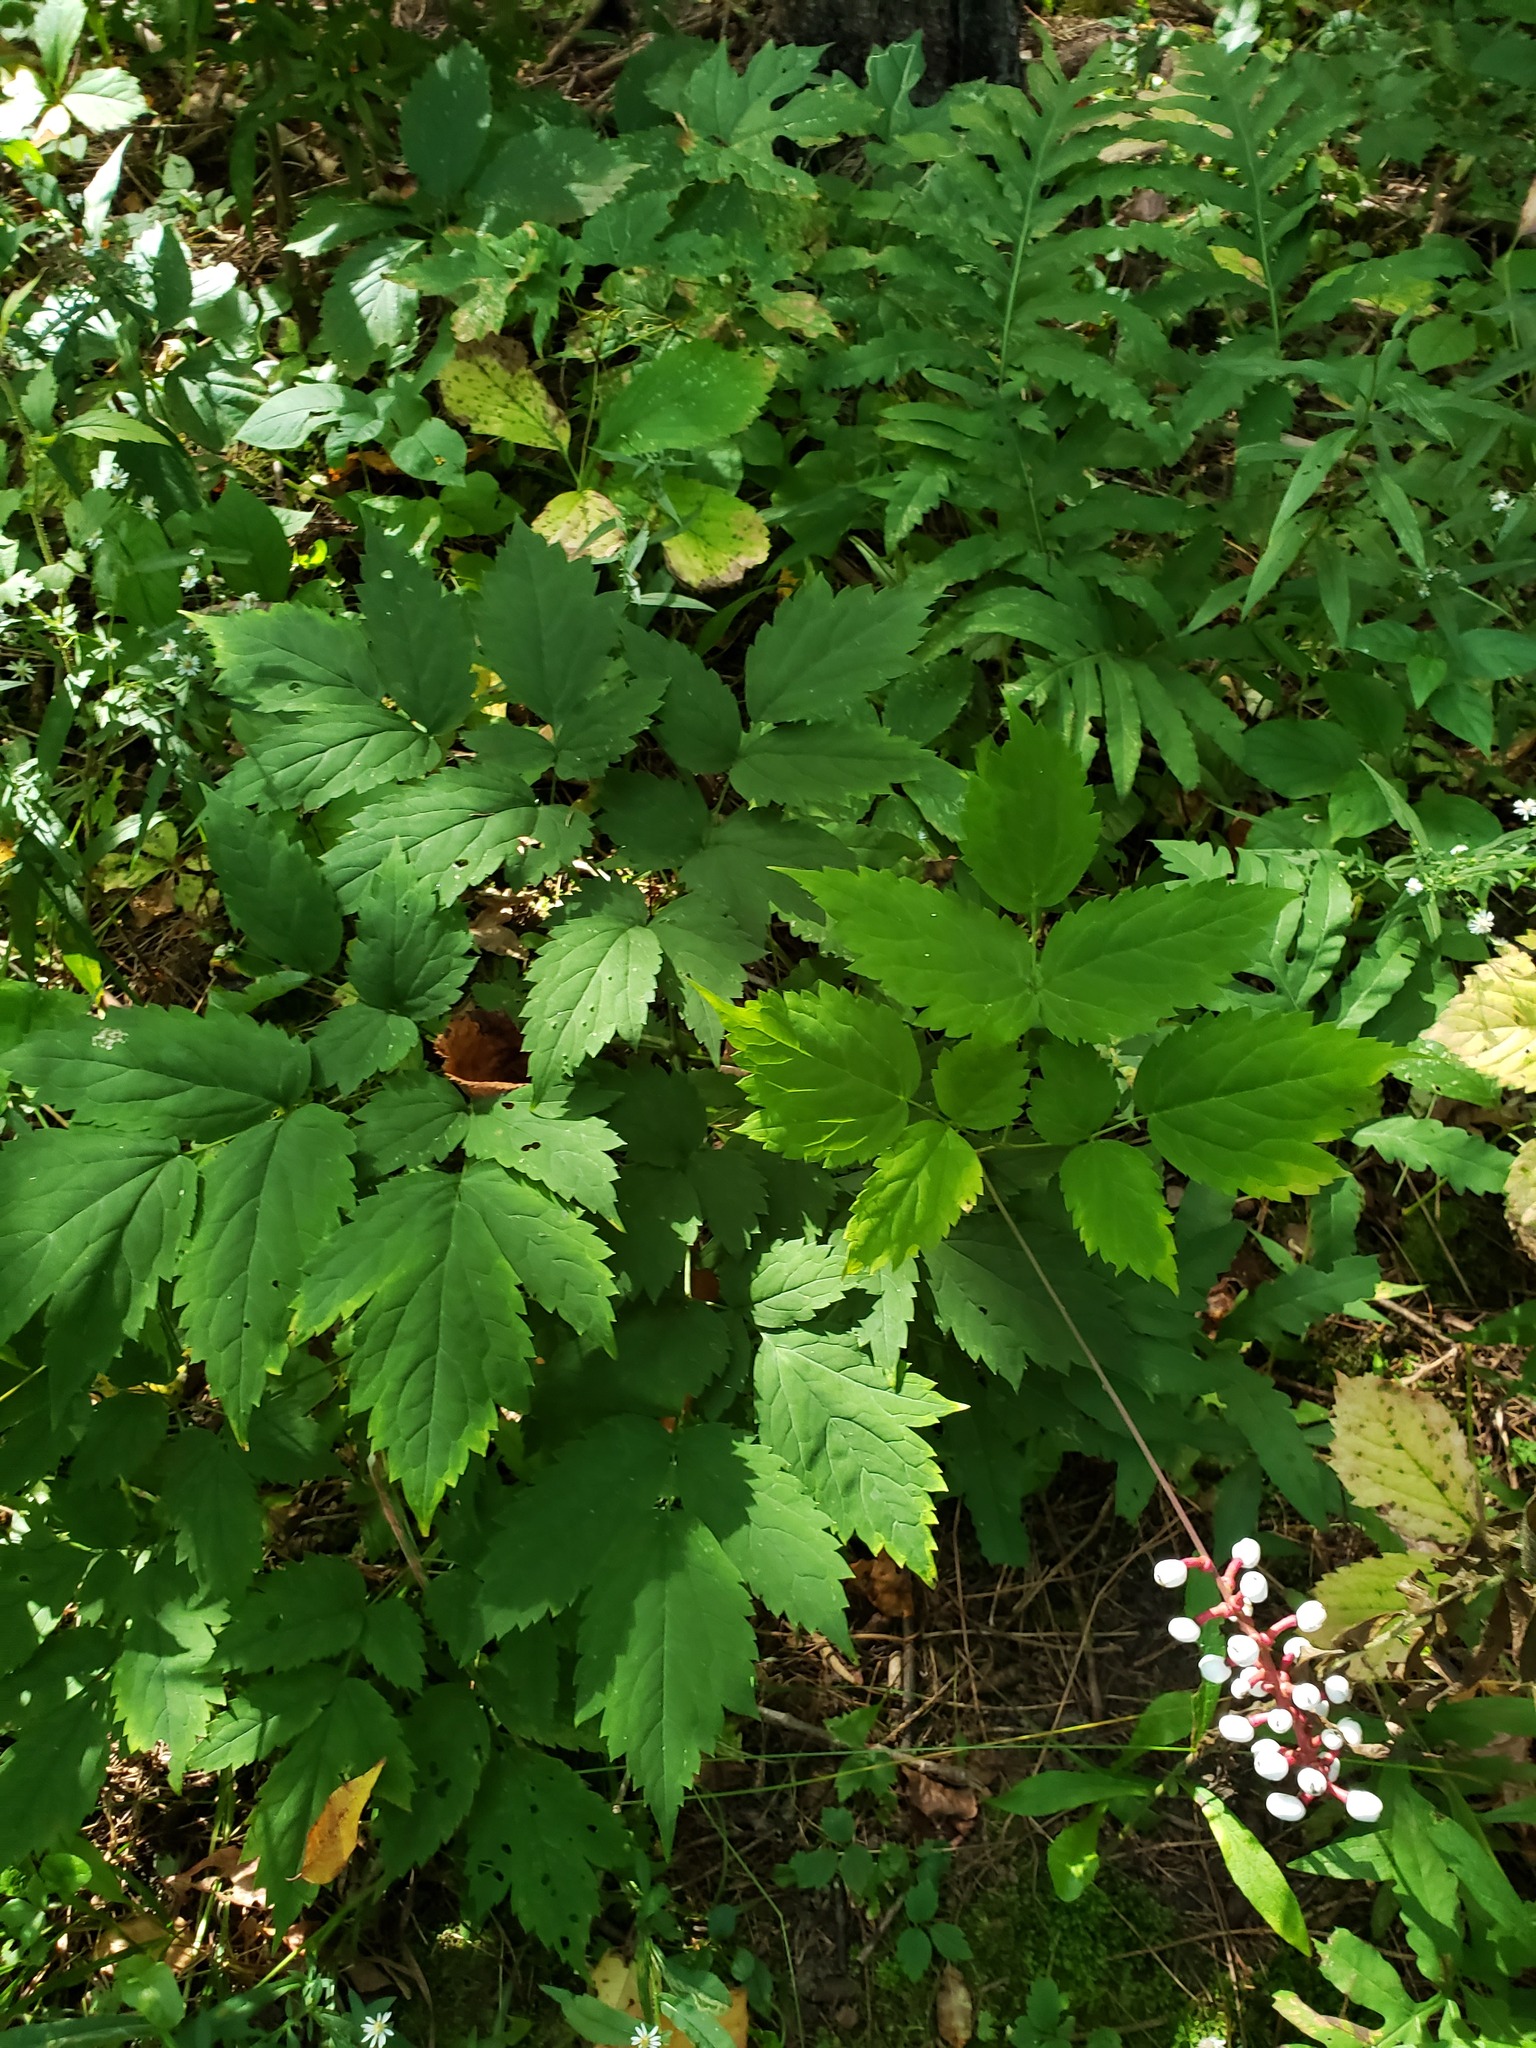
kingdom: Plantae
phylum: Tracheophyta
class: Magnoliopsida
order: Ranunculales
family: Ranunculaceae
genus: Actaea
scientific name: Actaea pachypoda
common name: Doll's-eyes
